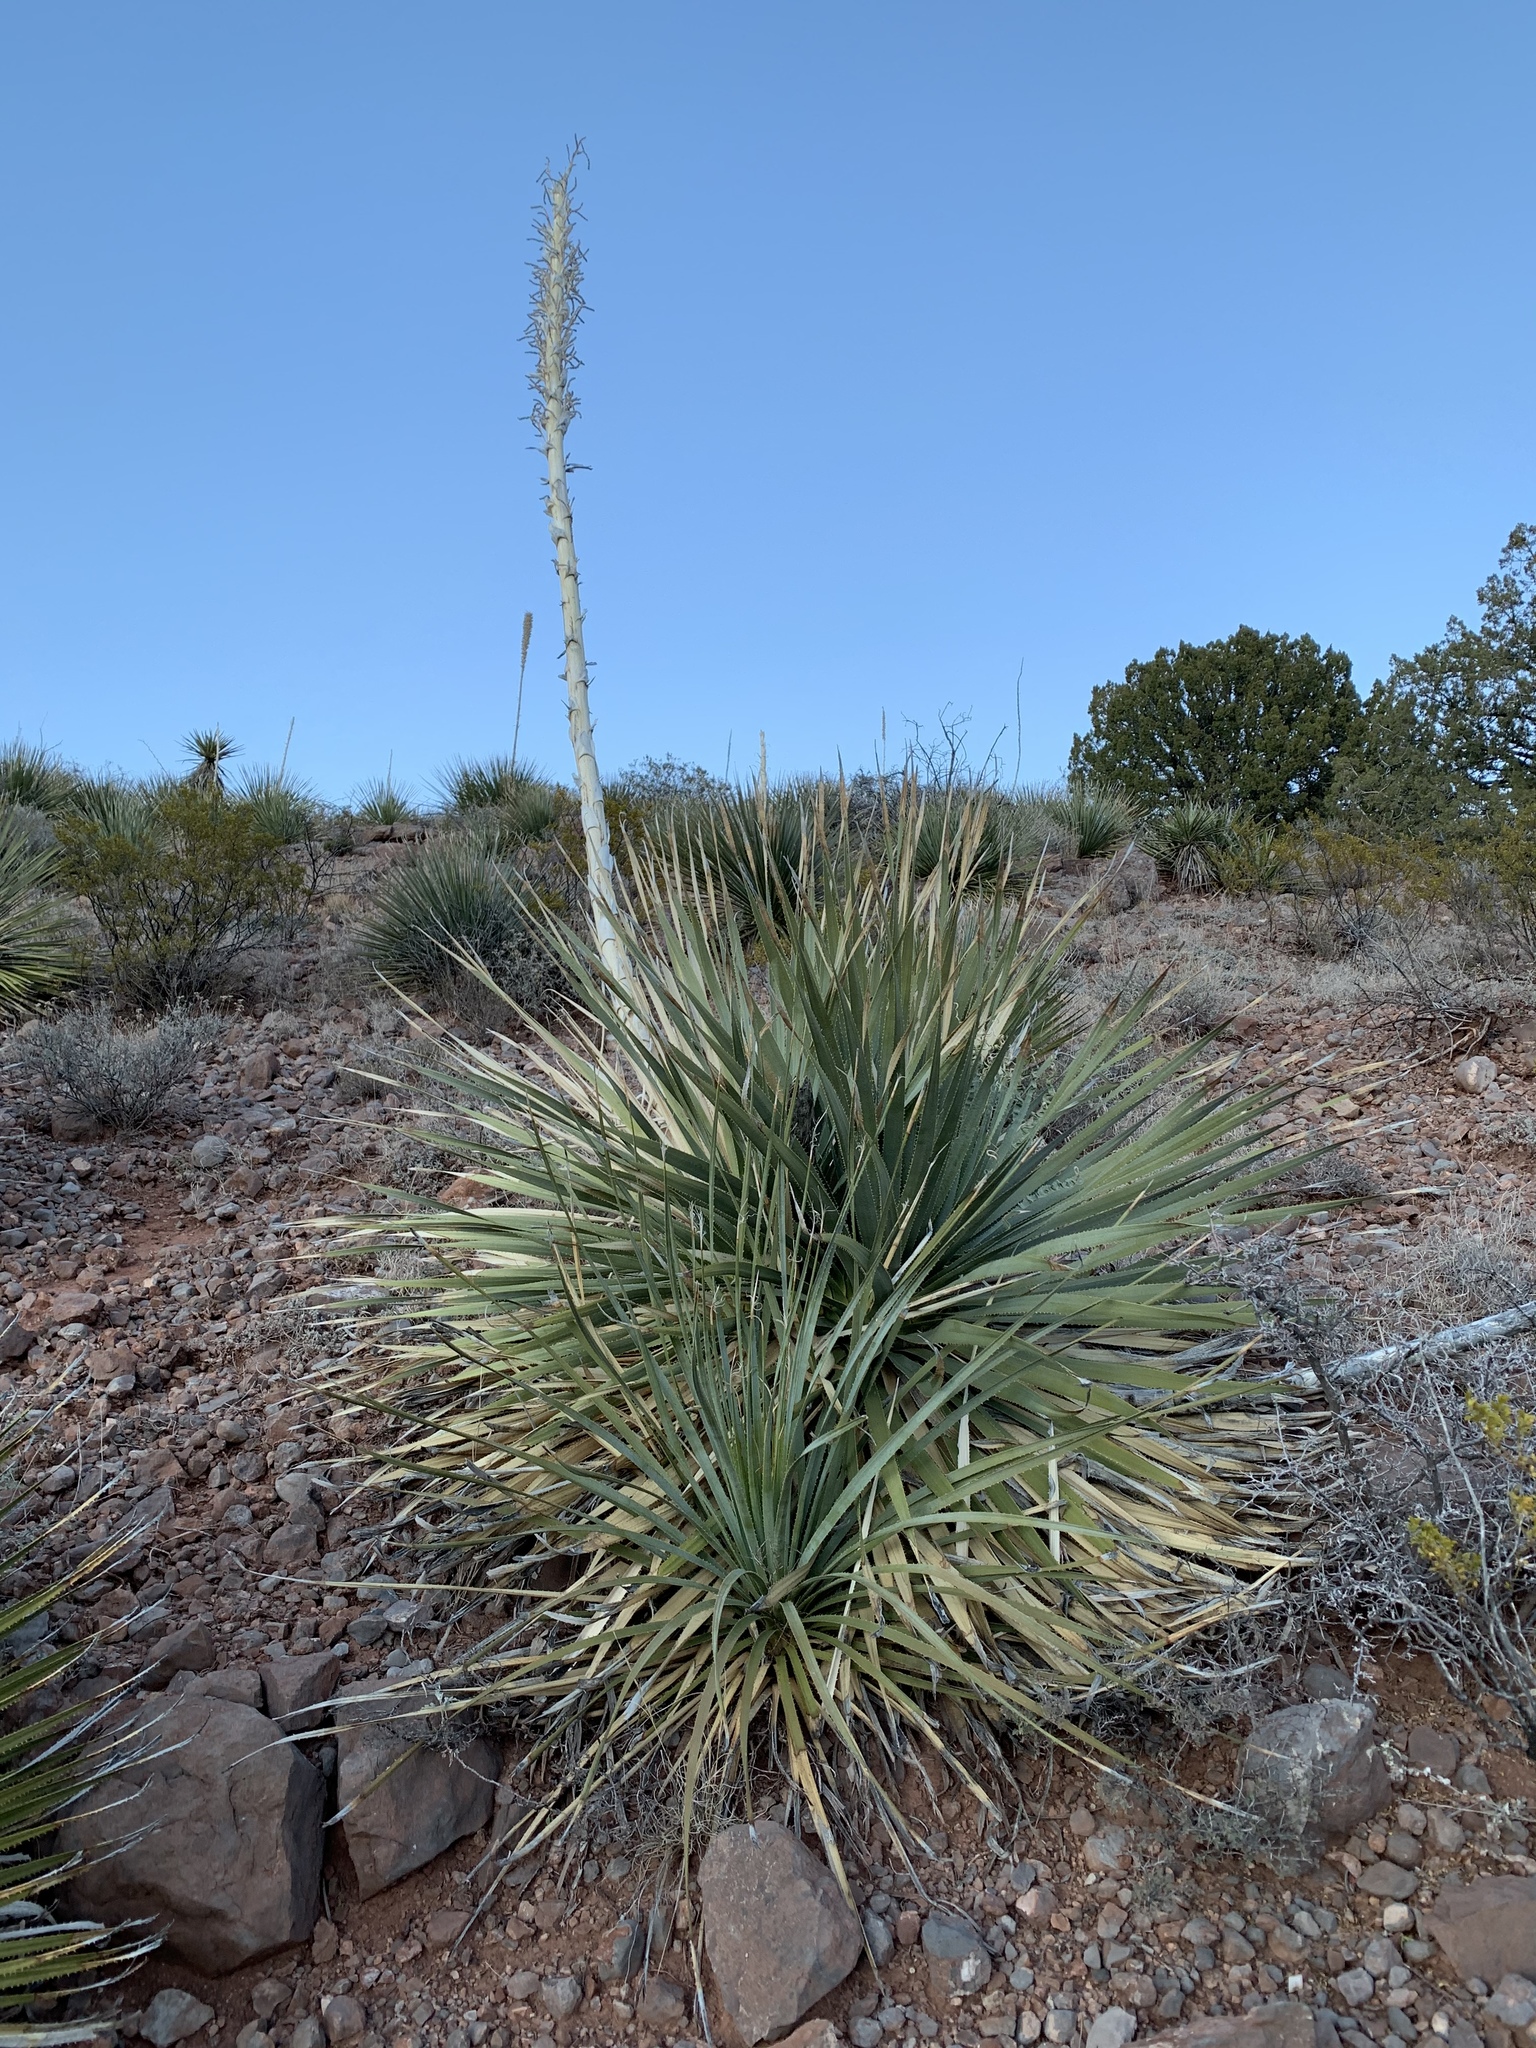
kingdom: Plantae
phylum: Tracheophyta
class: Liliopsida
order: Asparagales
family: Asparagaceae
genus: Dasylirion
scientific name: Dasylirion wheeleri
